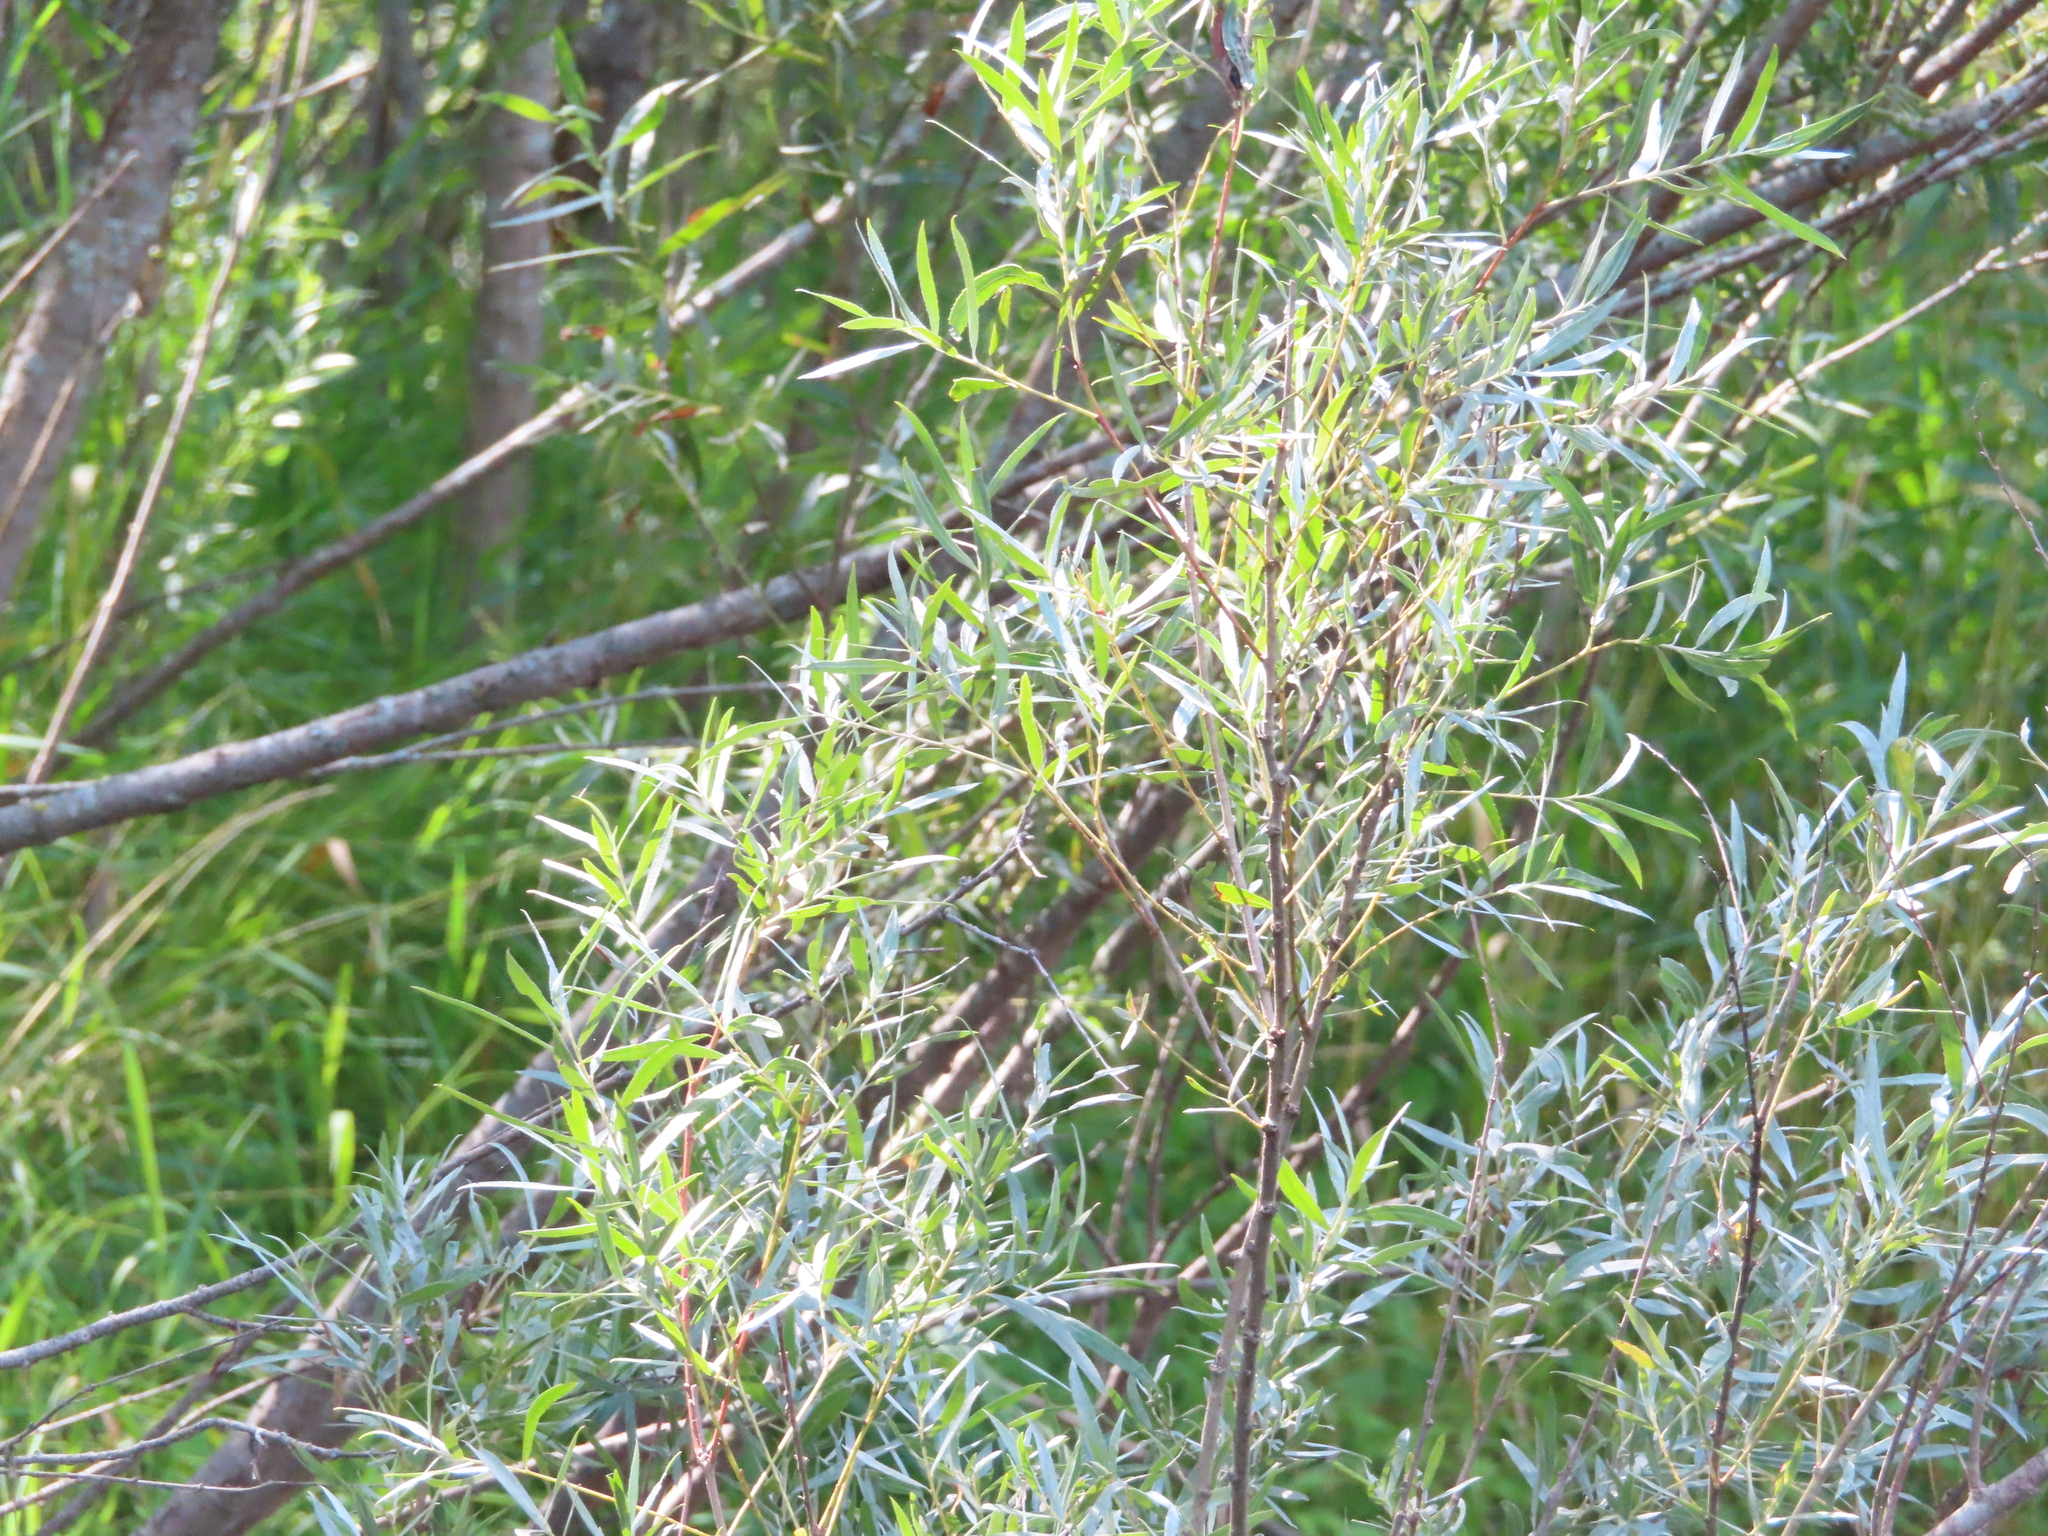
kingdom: Plantae
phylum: Tracheophyta
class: Magnoliopsida
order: Malpighiales
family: Salicaceae
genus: Salix
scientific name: Salix interior
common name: Sandbar willow
